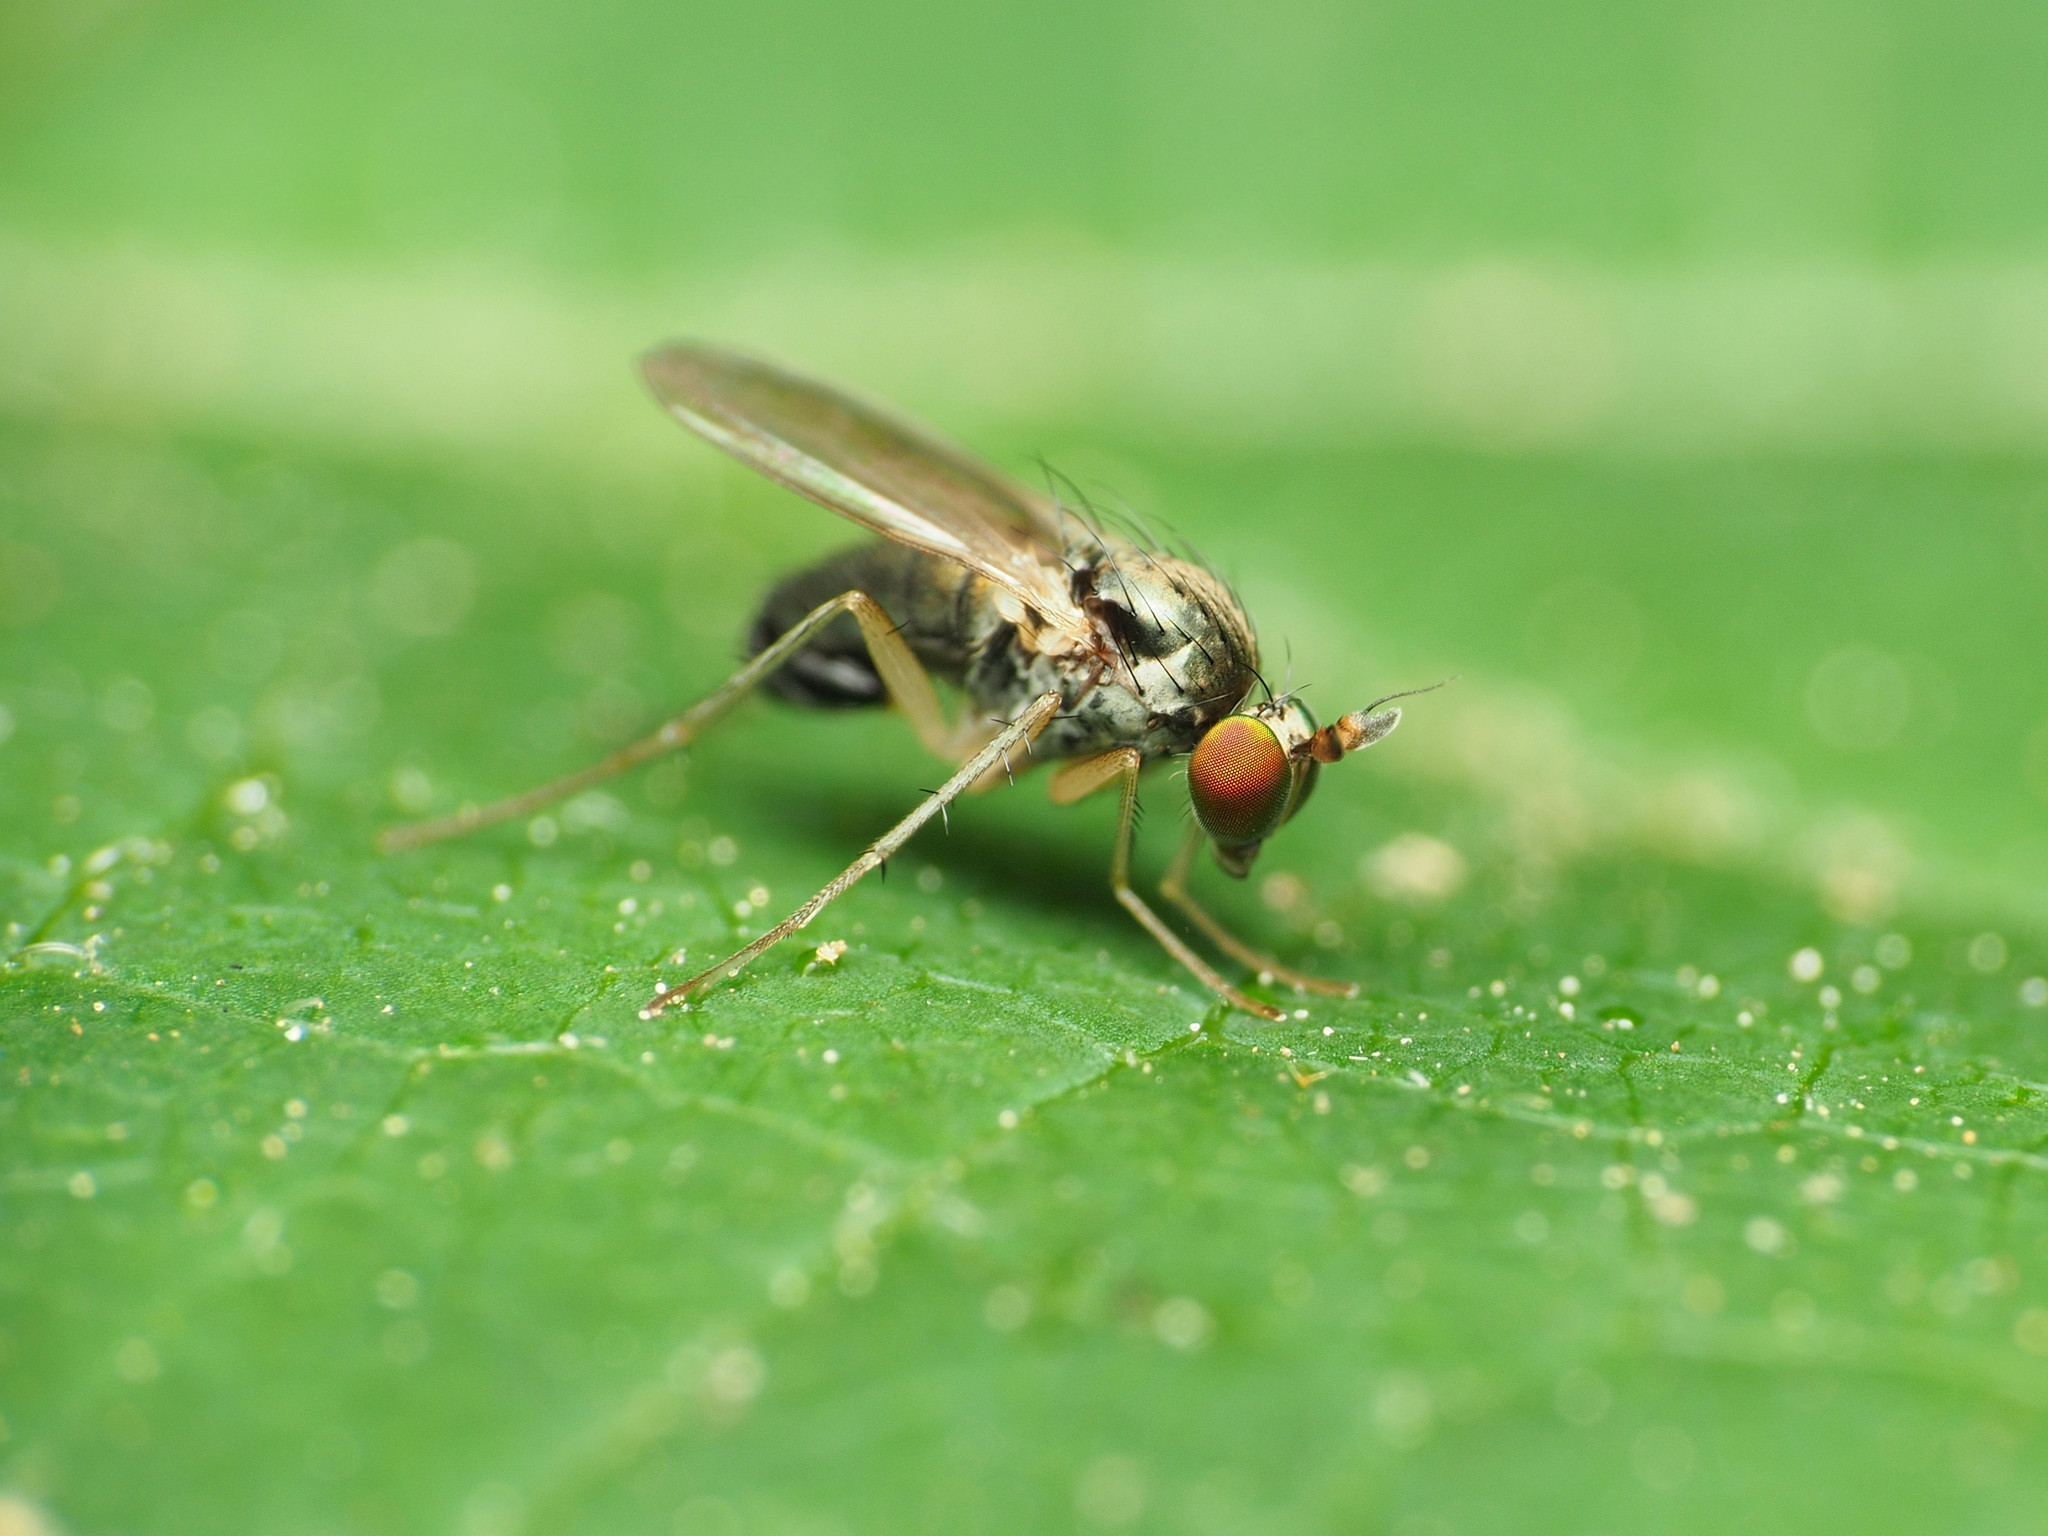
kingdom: Animalia
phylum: Arthropoda
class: Insecta
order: Diptera
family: Dolichopodidae
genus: Gymnopternus
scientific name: Gymnopternus opacus
